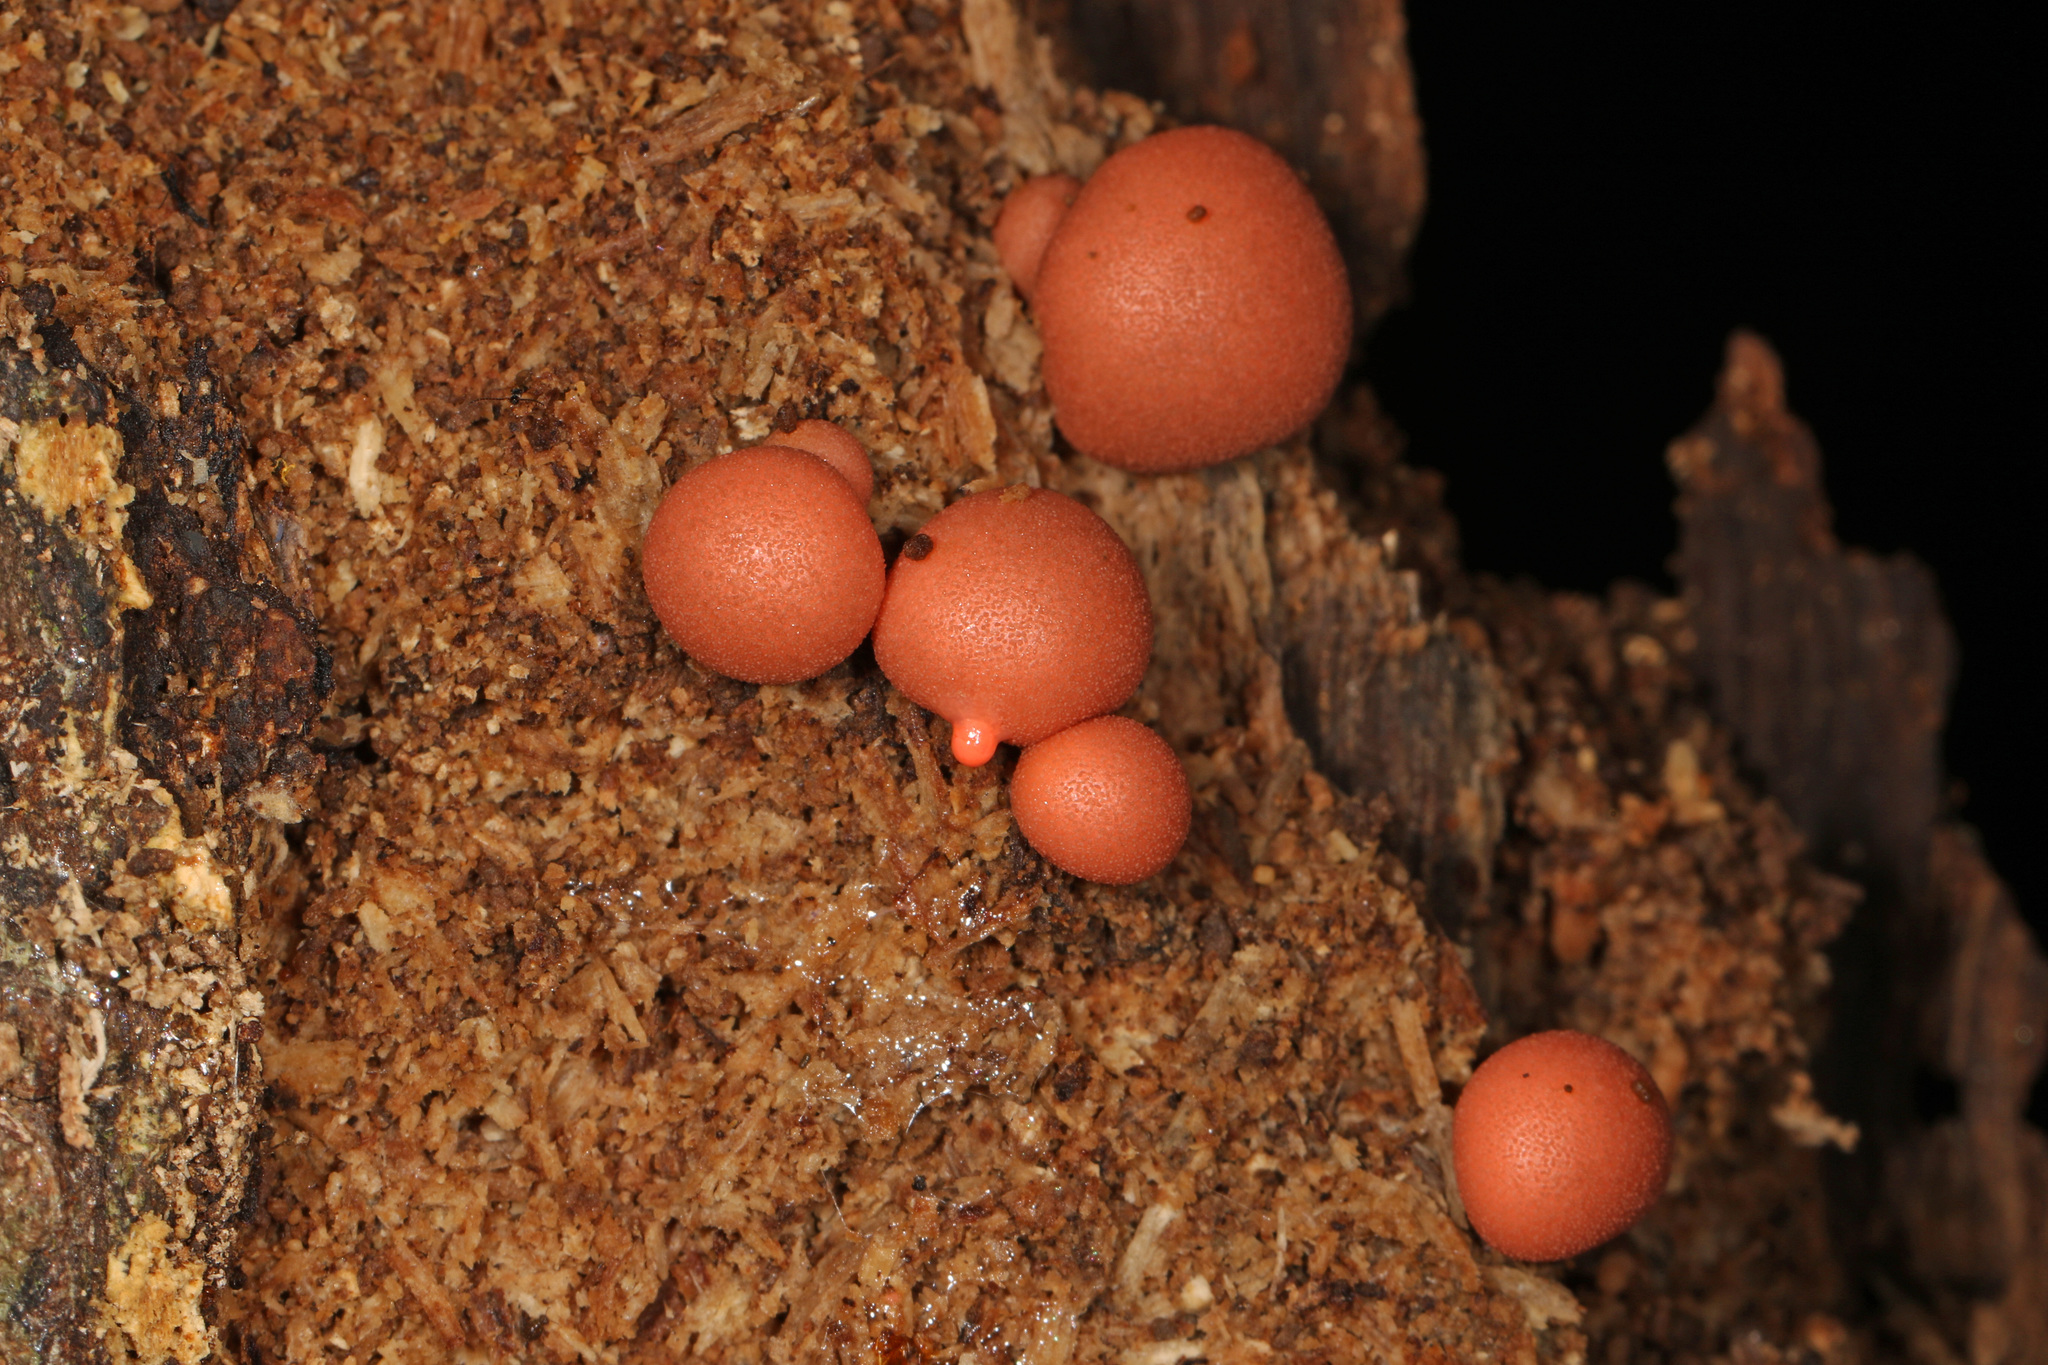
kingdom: Protozoa
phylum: Mycetozoa
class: Myxomycetes
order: Cribrariales
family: Tubiferaceae
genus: Lycogala
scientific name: Lycogala epidendrum
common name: Wolf's milk
